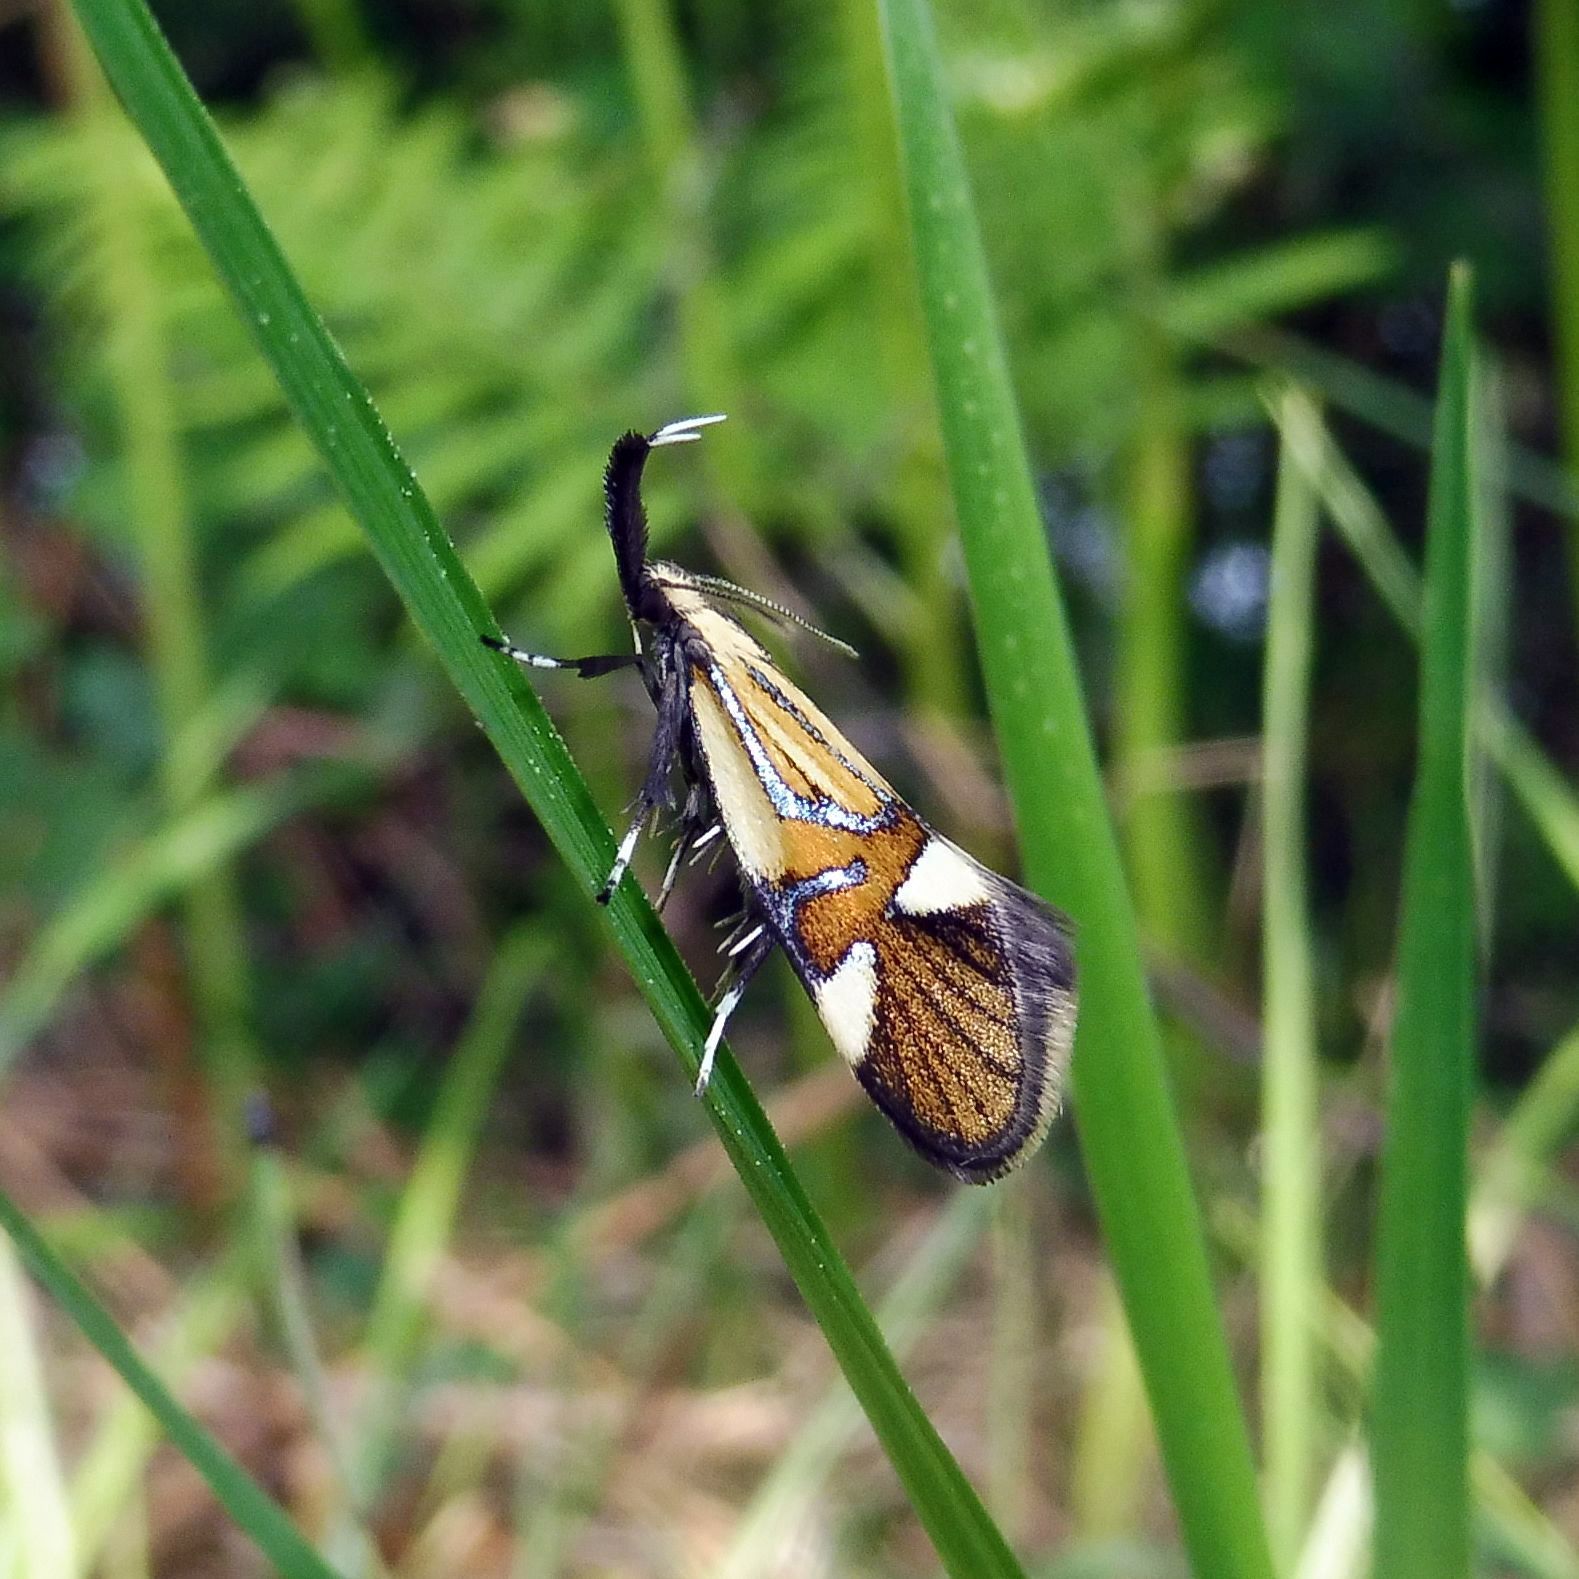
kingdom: Animalia
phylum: Arthropoda
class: Insecta
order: Lepidoptera
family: Oecophoridae
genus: Oecophora
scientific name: Oecophora Alabonia geoffrella
